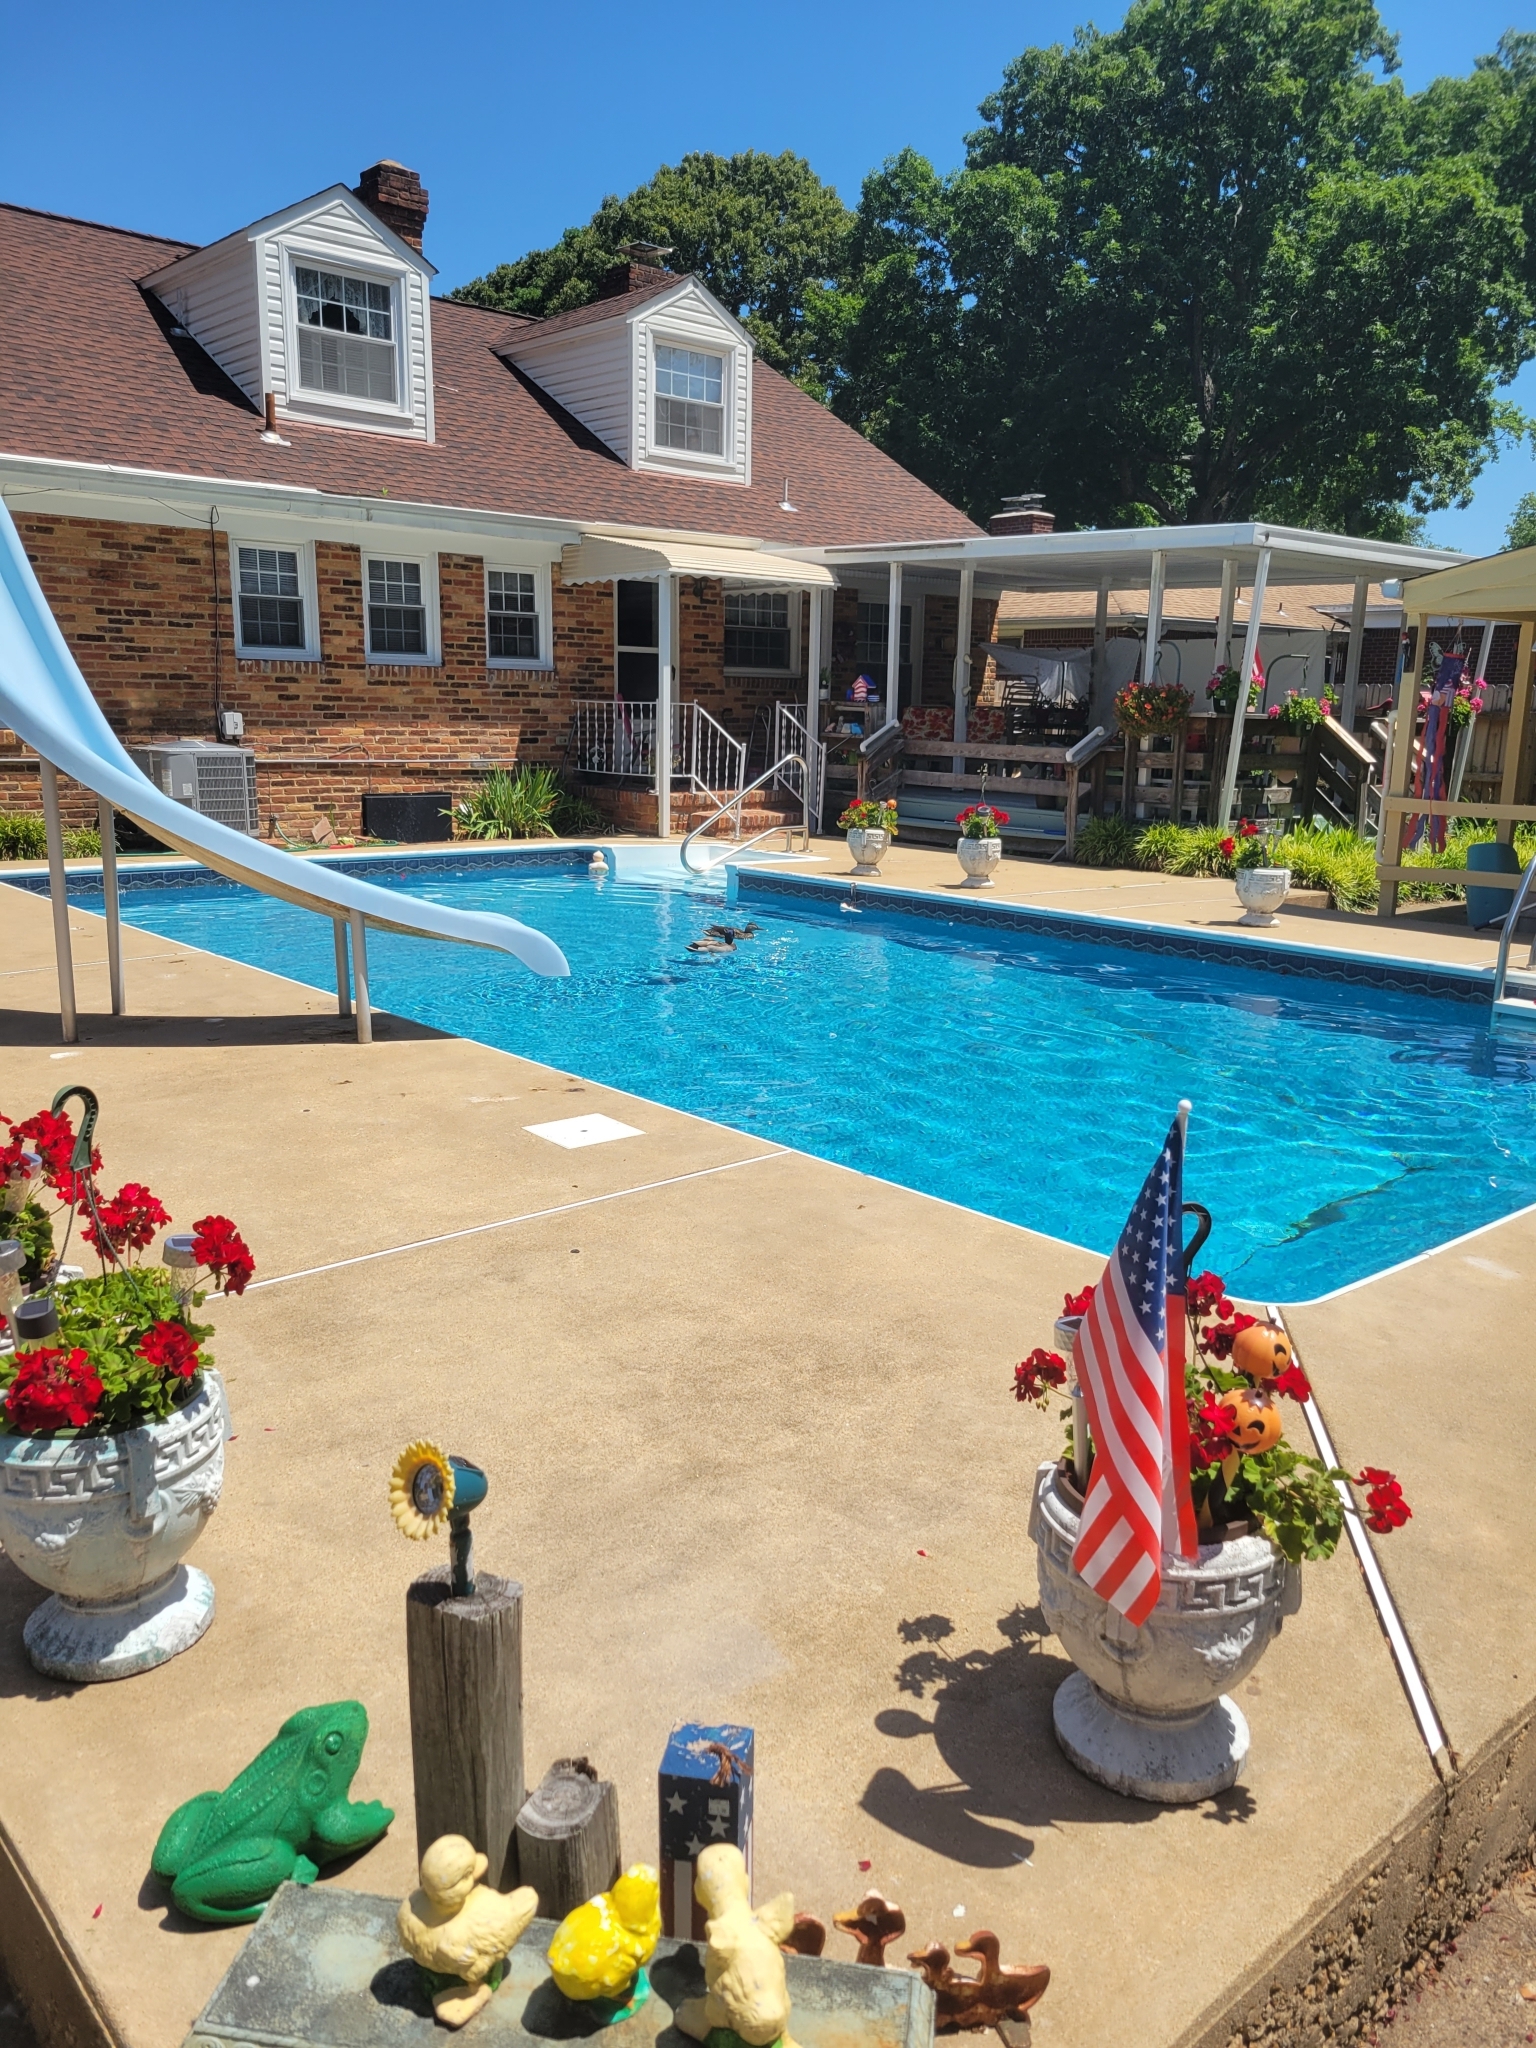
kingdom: Animalia
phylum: Chordata
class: Aves
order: Anseriformes
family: Anatidae
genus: Anas
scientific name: Anas platyrhynchos
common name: Mallard
